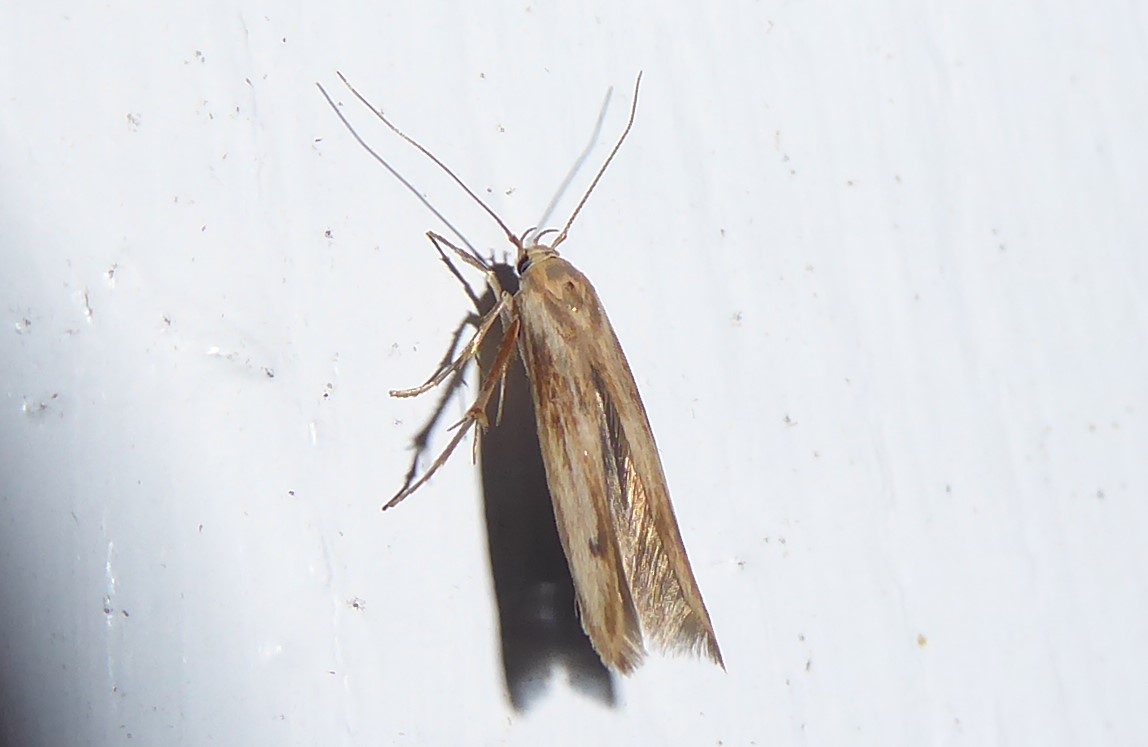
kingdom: Animalia
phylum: Arthropoda
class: Insecta
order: Lepidoptera
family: Stathmopodidae
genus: Stathmopoda
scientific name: Stathmopoda aposema
